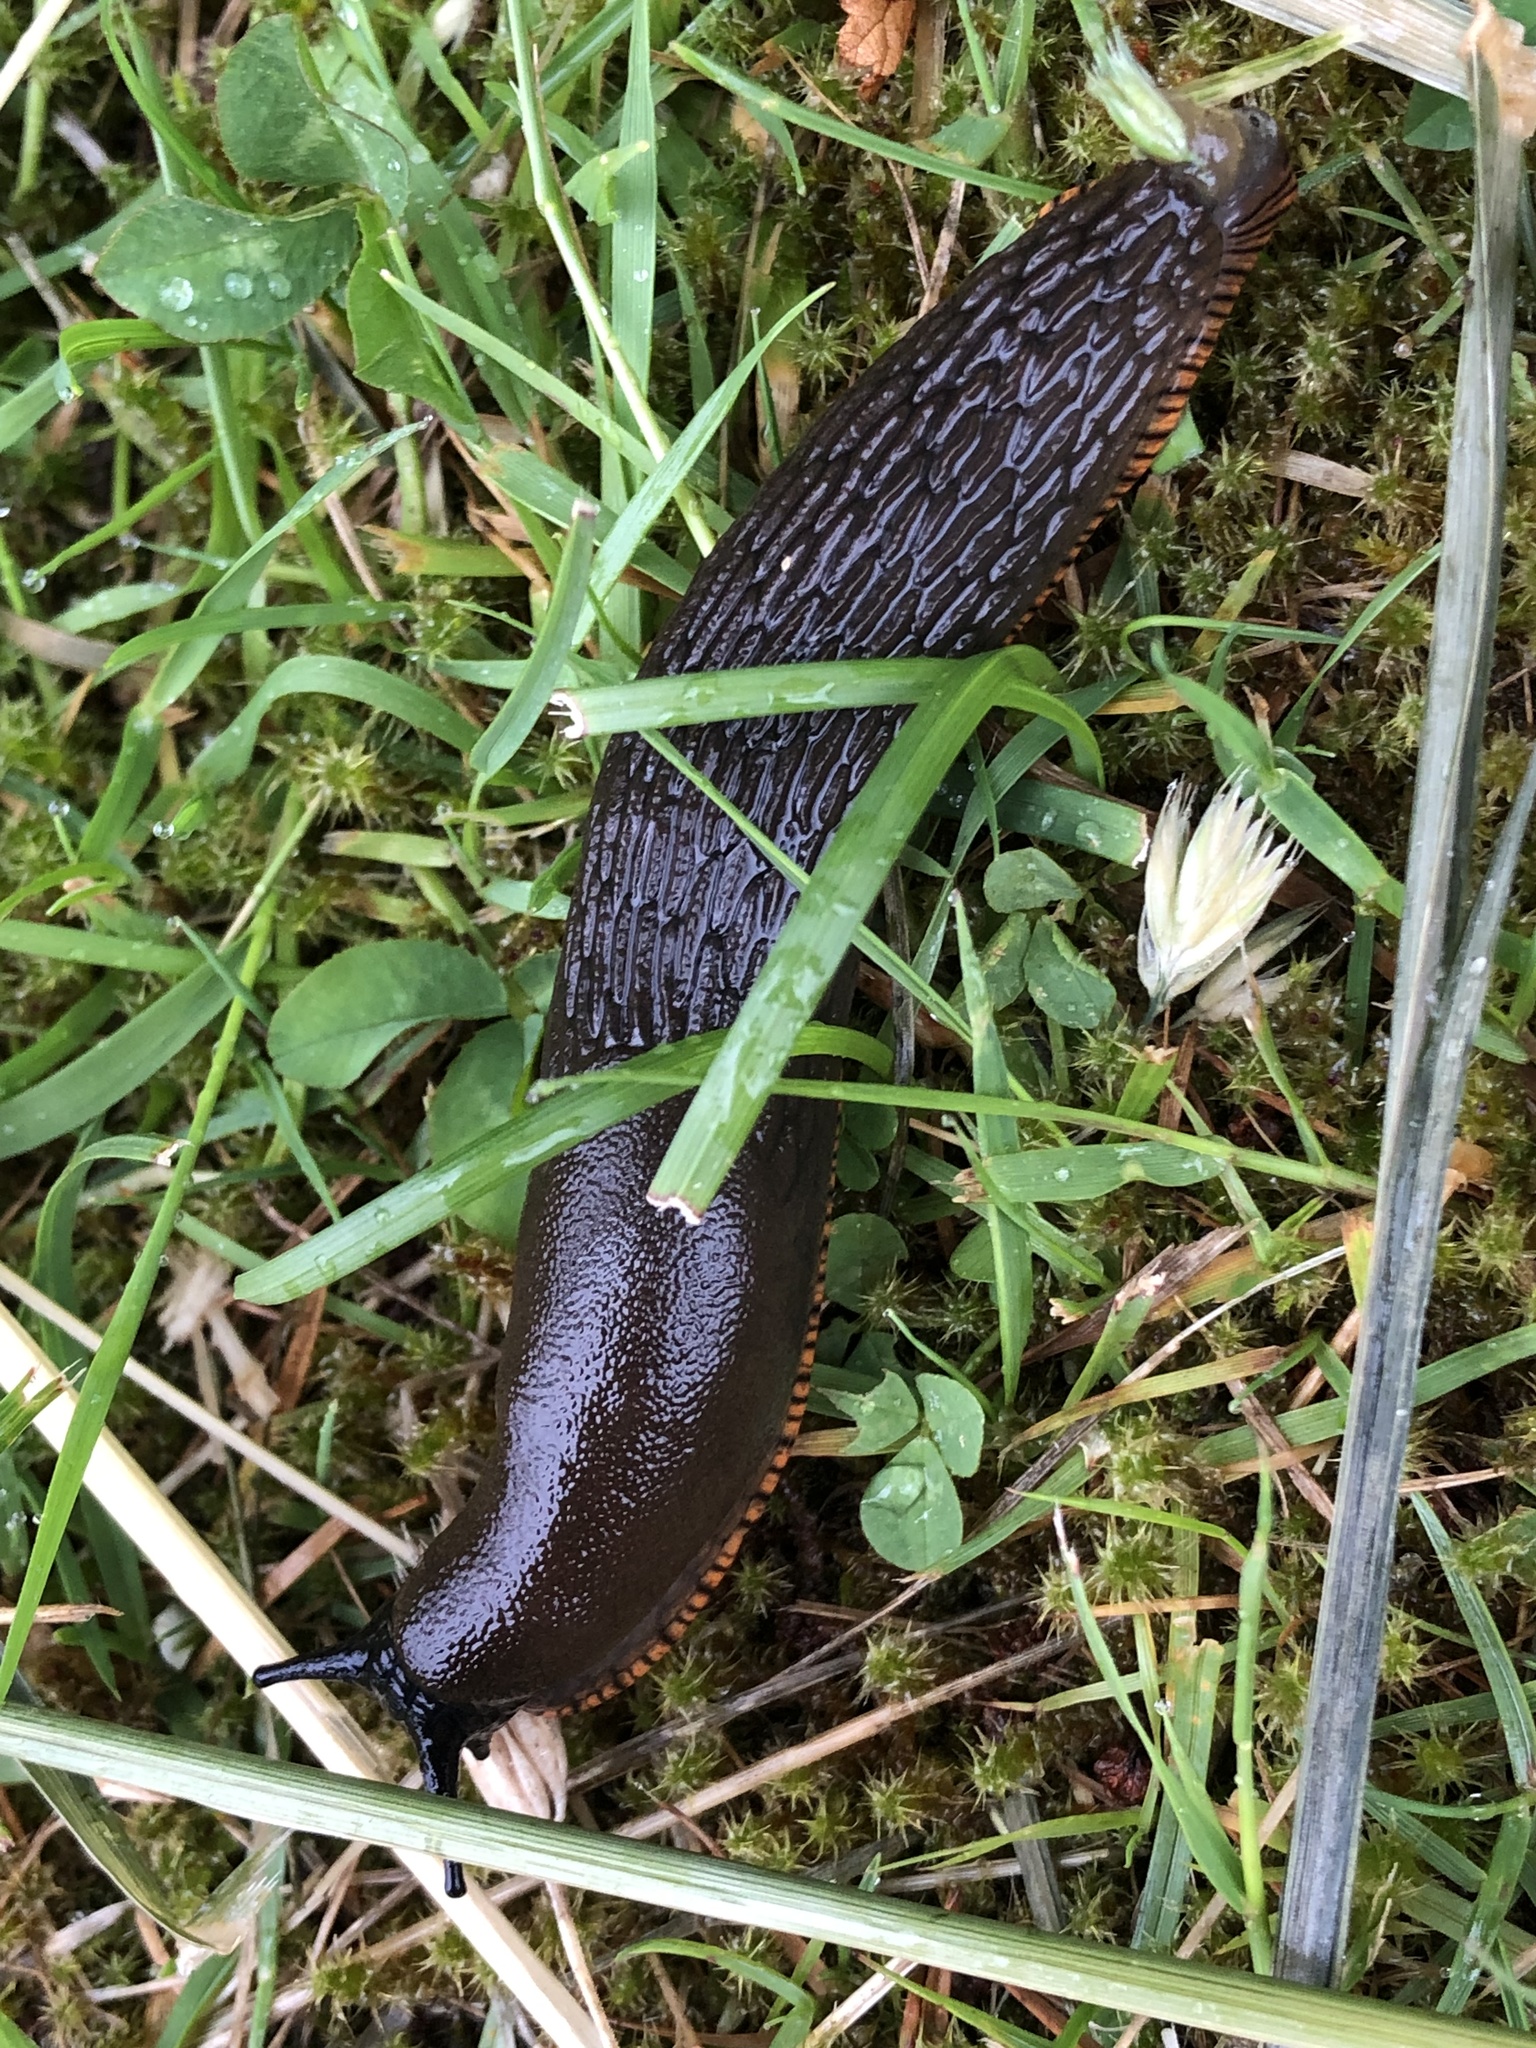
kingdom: Animalia
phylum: Mollusca
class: Gastropoda
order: Stylommatophora
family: Arionidae
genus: Arion
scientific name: Arion rufus
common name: Chocolate arion
